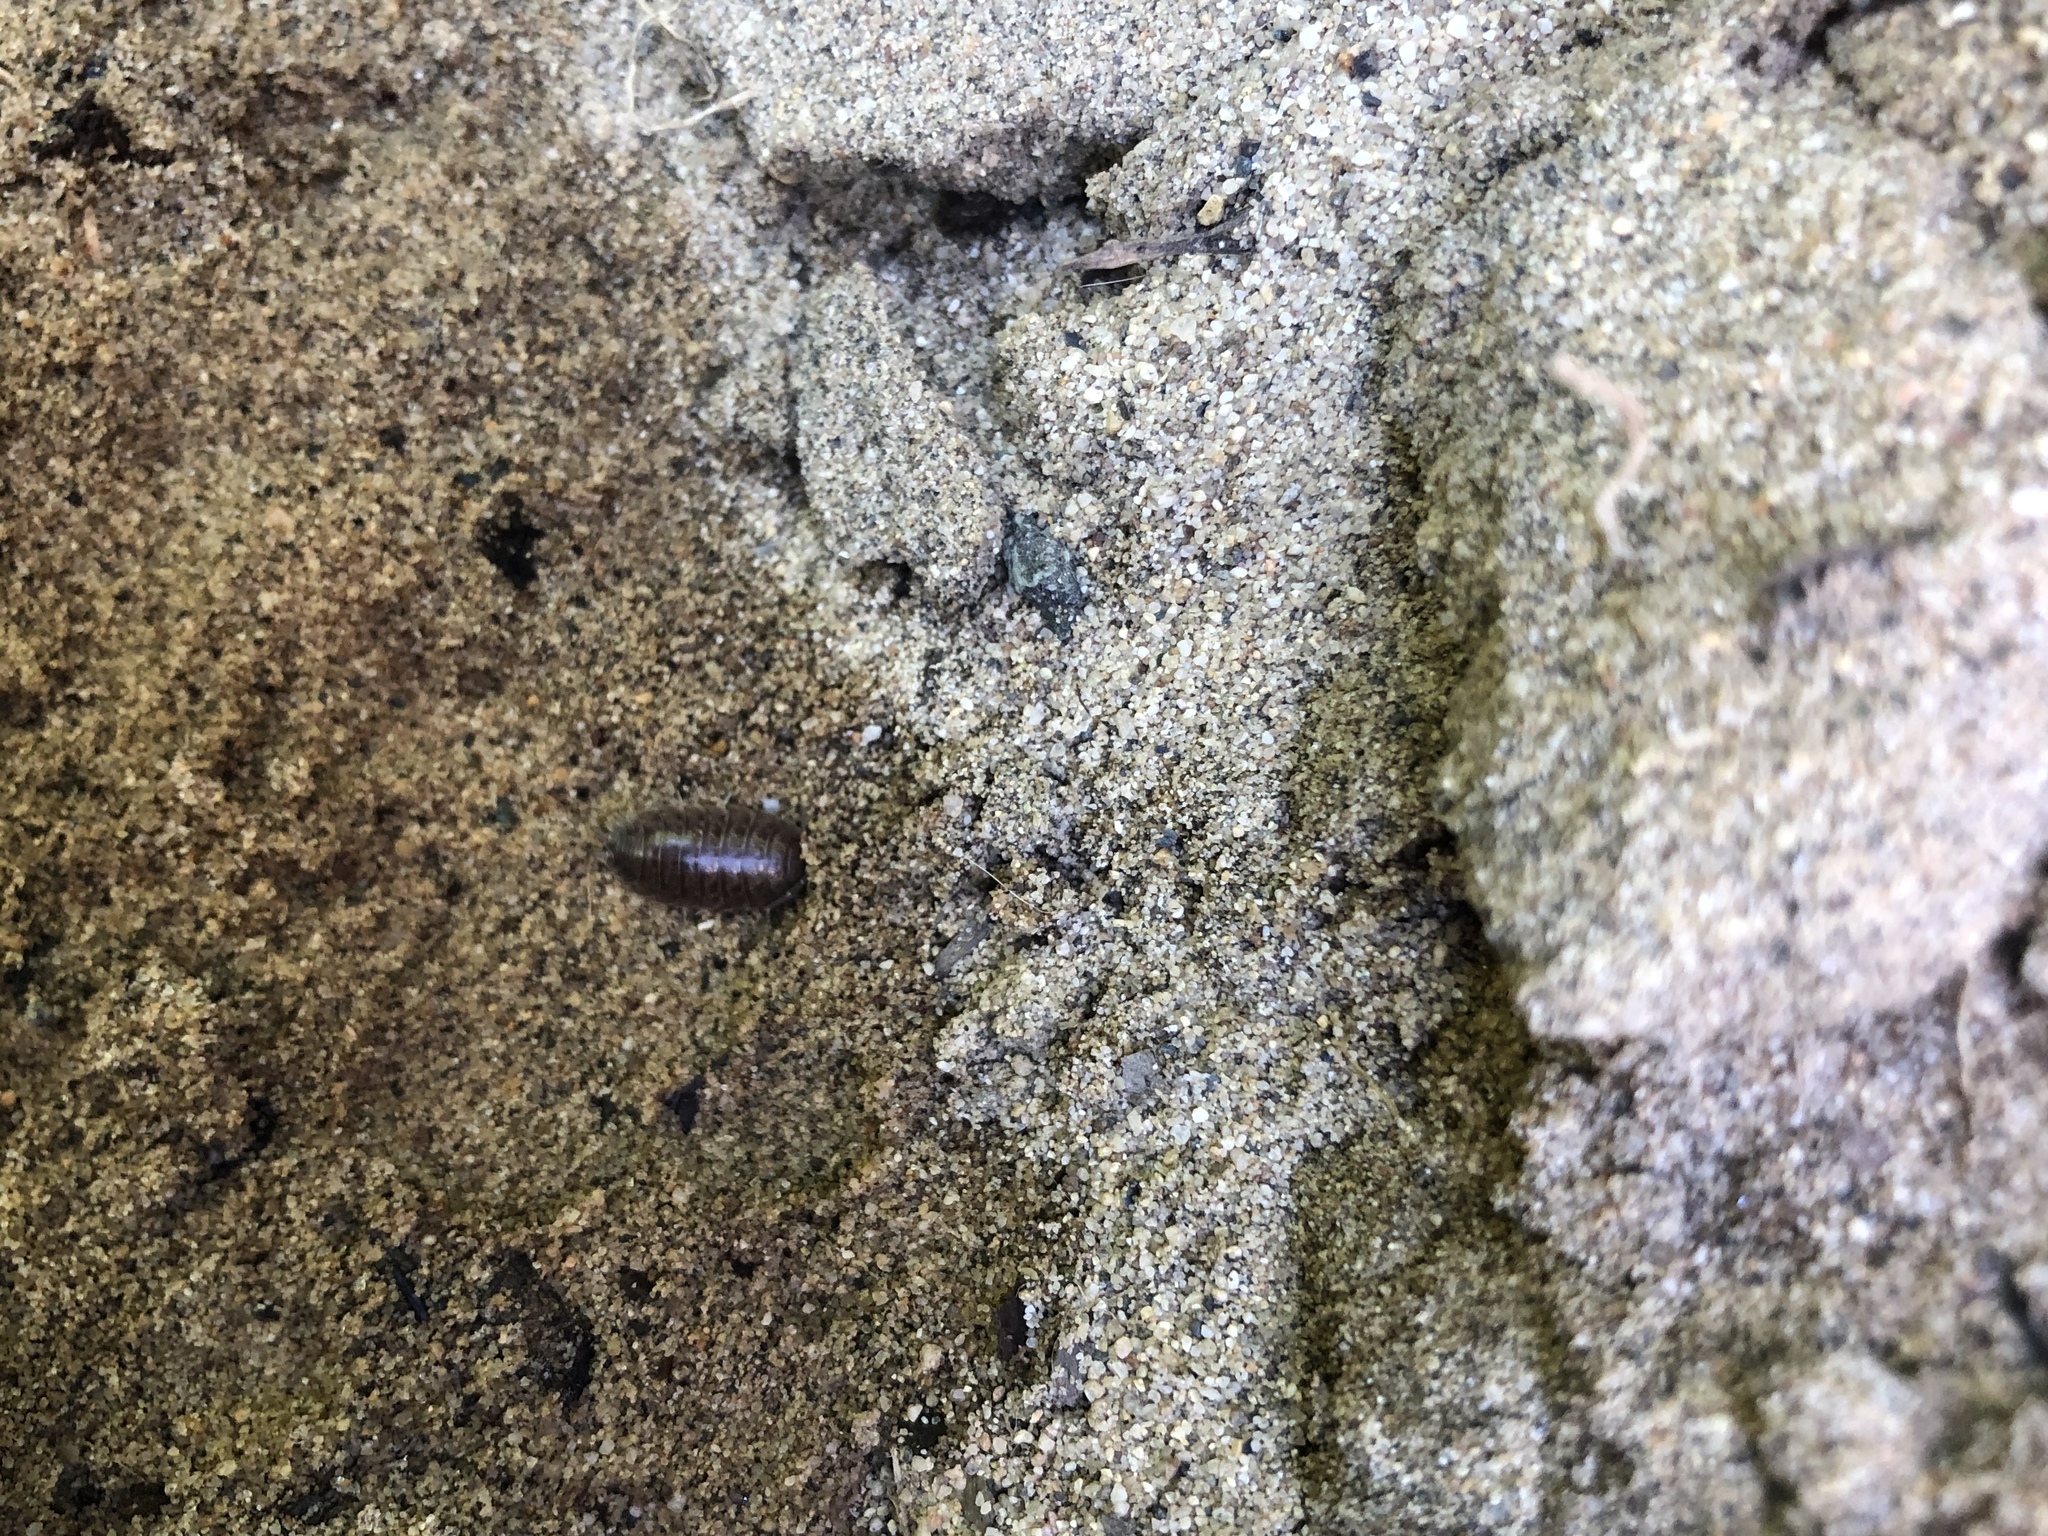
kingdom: Animalia
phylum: Arthropoda
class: Malacostraca
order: Isopoda
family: Porcellionidae
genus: Porcellio
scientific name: Porcellio laevis
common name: Swift woodlouse
